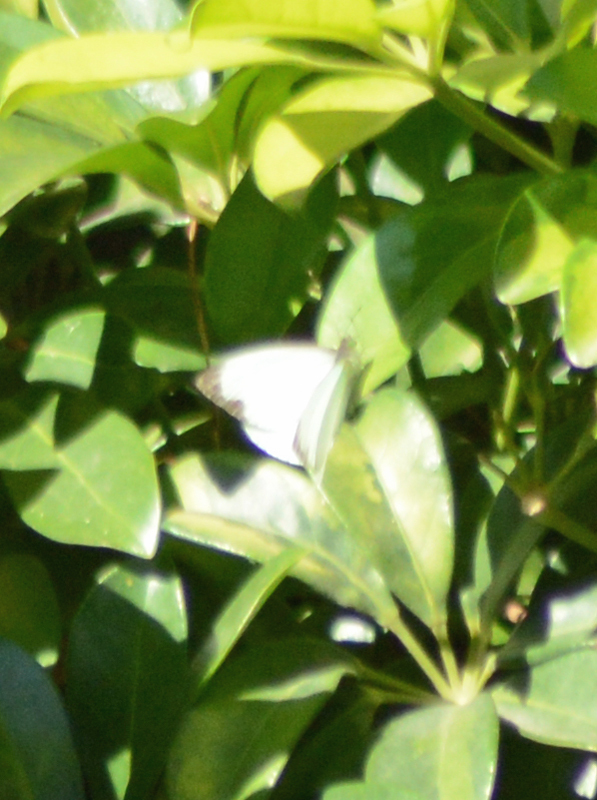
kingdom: Animalia
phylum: Arthropoda
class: Insecta
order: Lepidoptera
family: Pieridae
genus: Leptophobia
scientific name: Leptophobia aripa
